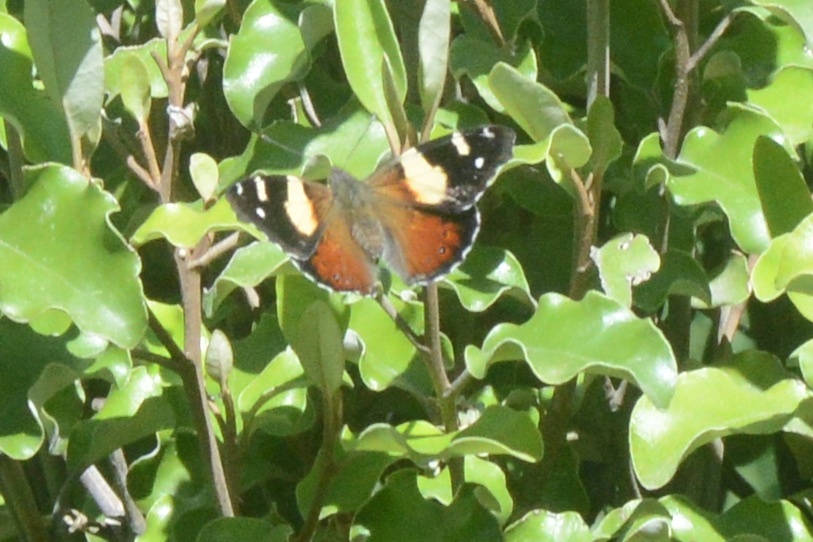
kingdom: Animalia
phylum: Arthropoda
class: Insecta
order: Lepidoptera
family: Nymphalidae
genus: Vanessa
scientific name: Vanessa itea
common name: Yellow admiral
